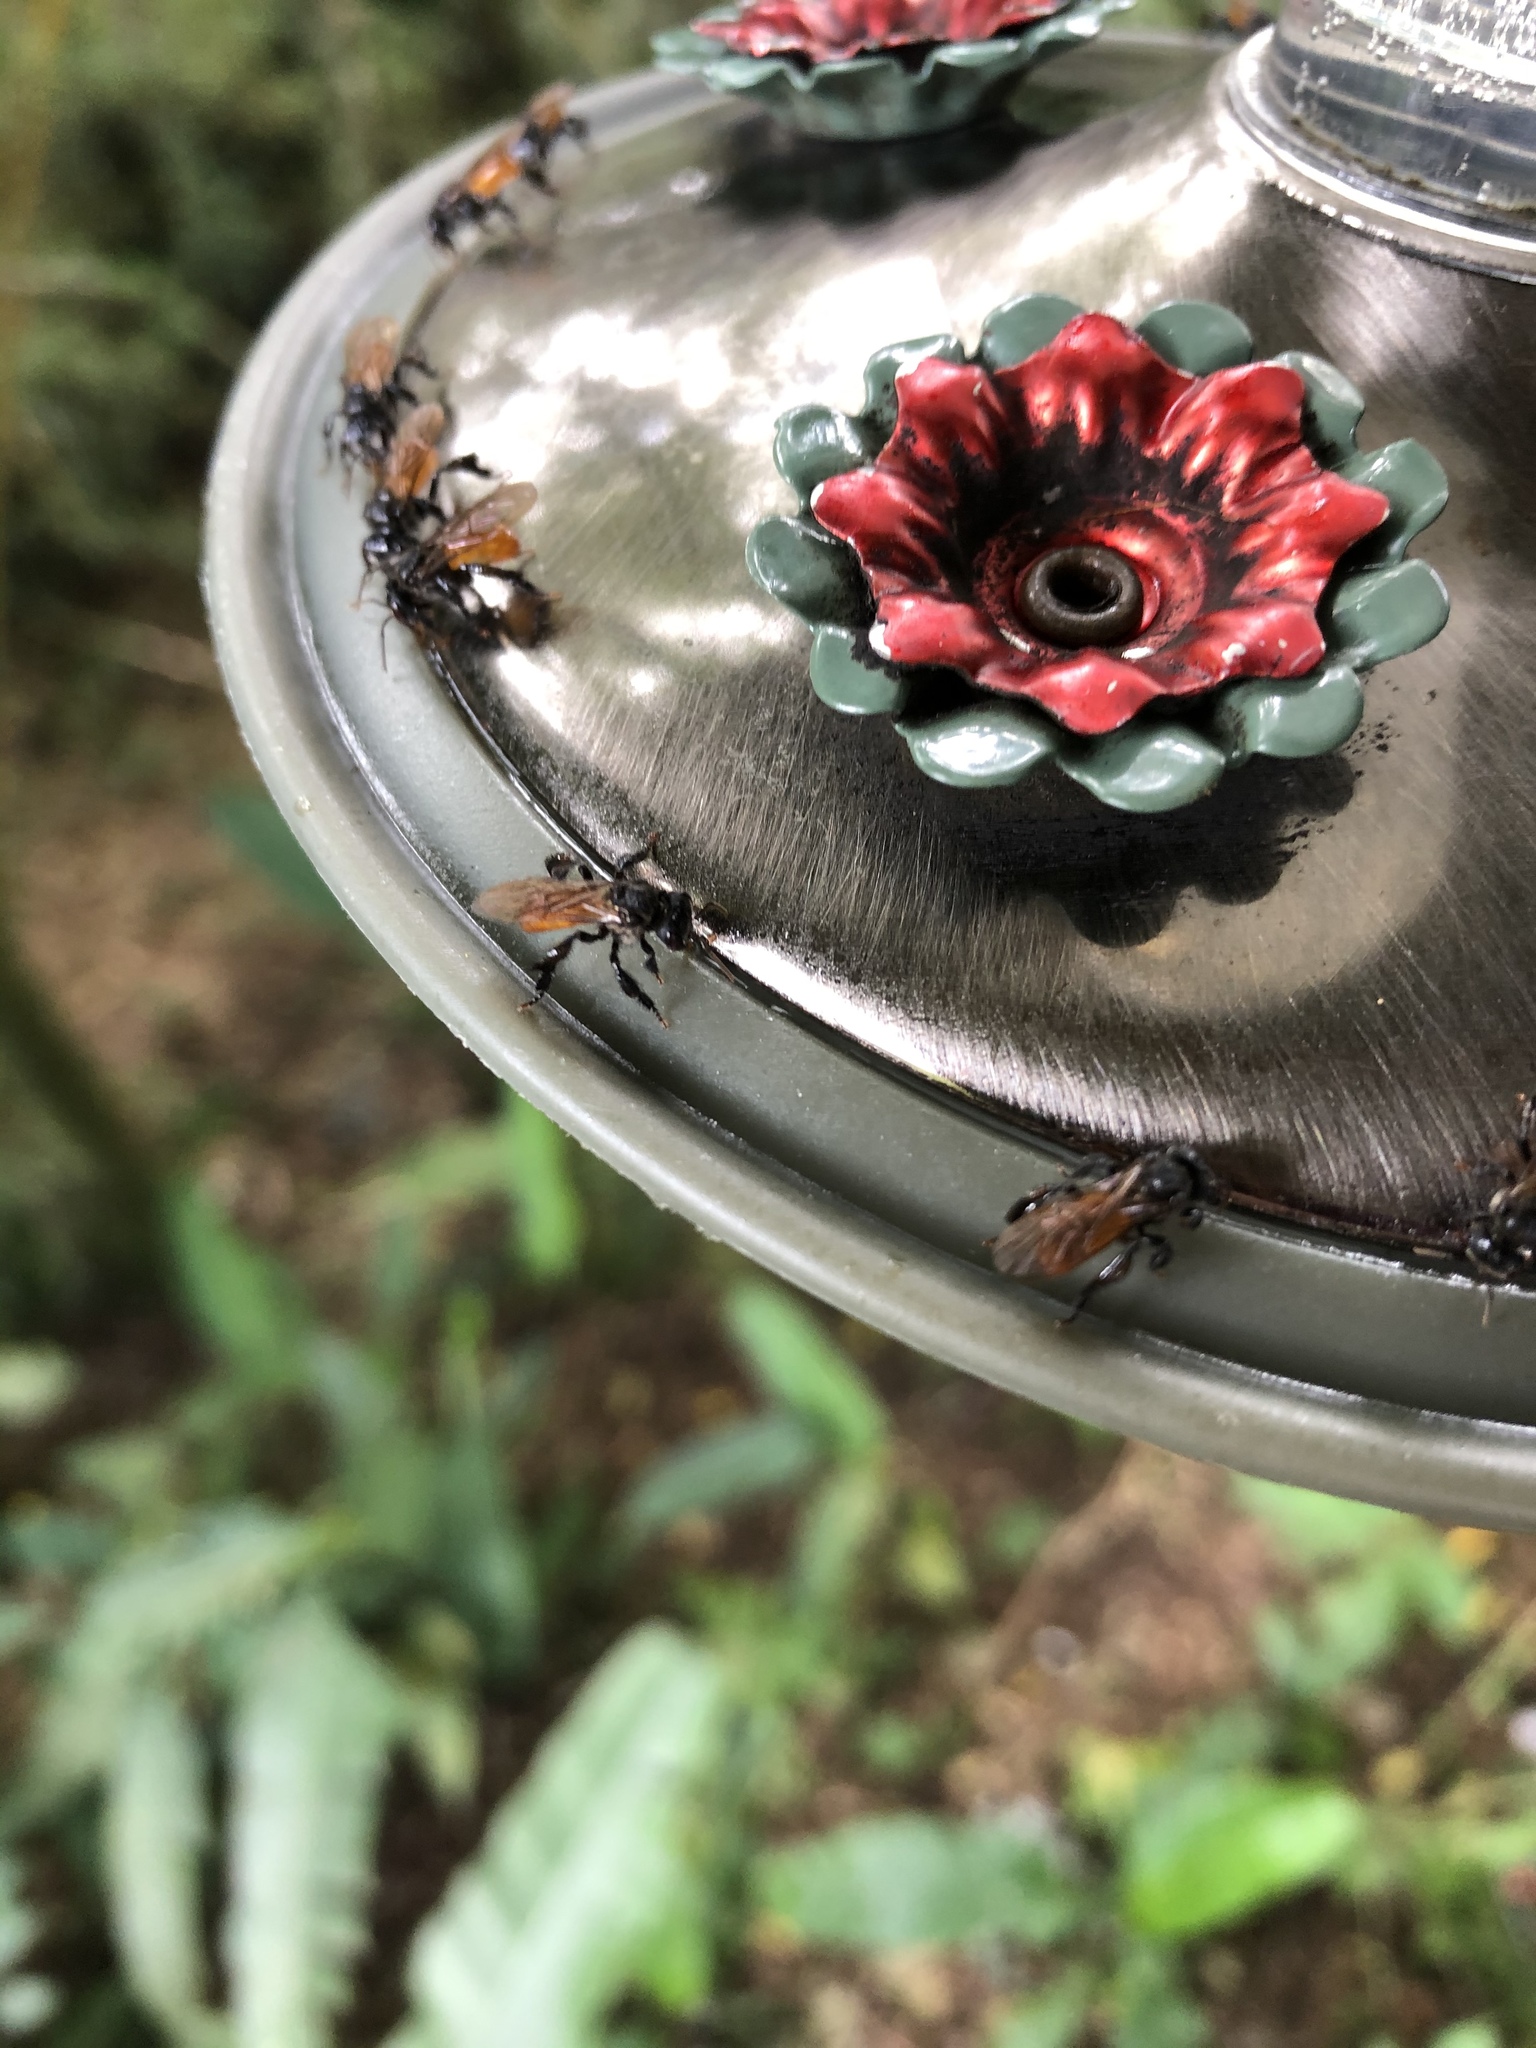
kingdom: Animalia
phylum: Arthropoda
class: Insecta
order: Hymenoptera
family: Apidae
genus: Trigona
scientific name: Trigona fulviventris
